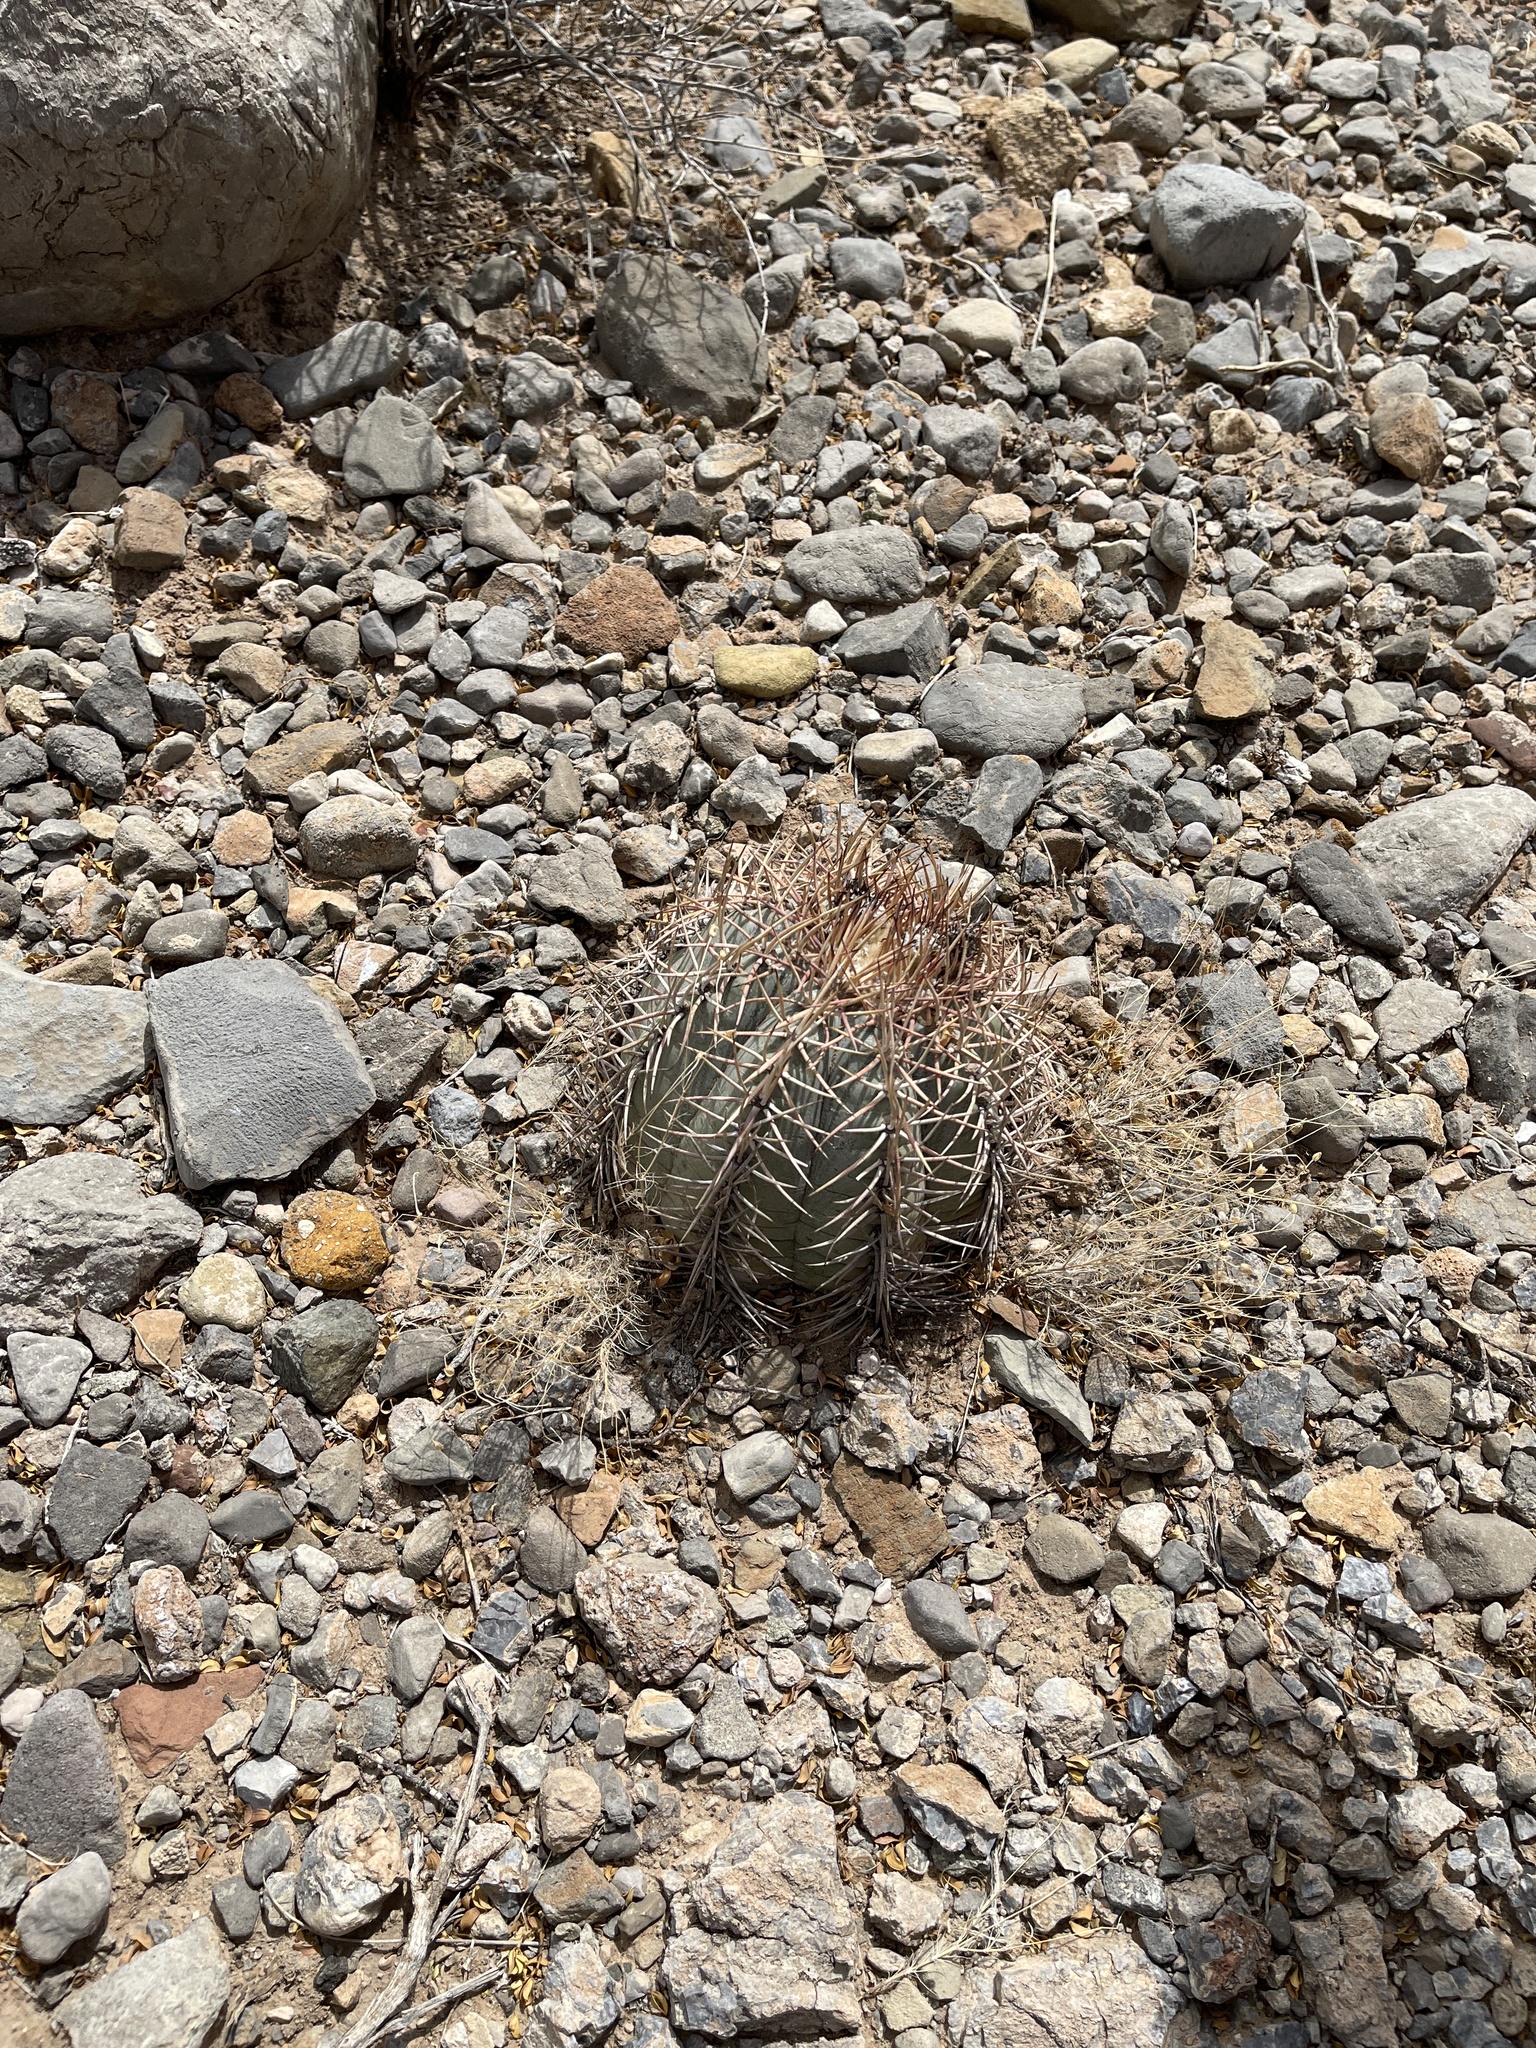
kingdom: Plantae
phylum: Tracheophyta
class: Magnoliopsida
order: Caryophyllales
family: Cactaceae
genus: Echinocactus
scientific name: Echinocactus horizonthalonius
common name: Devilshead
